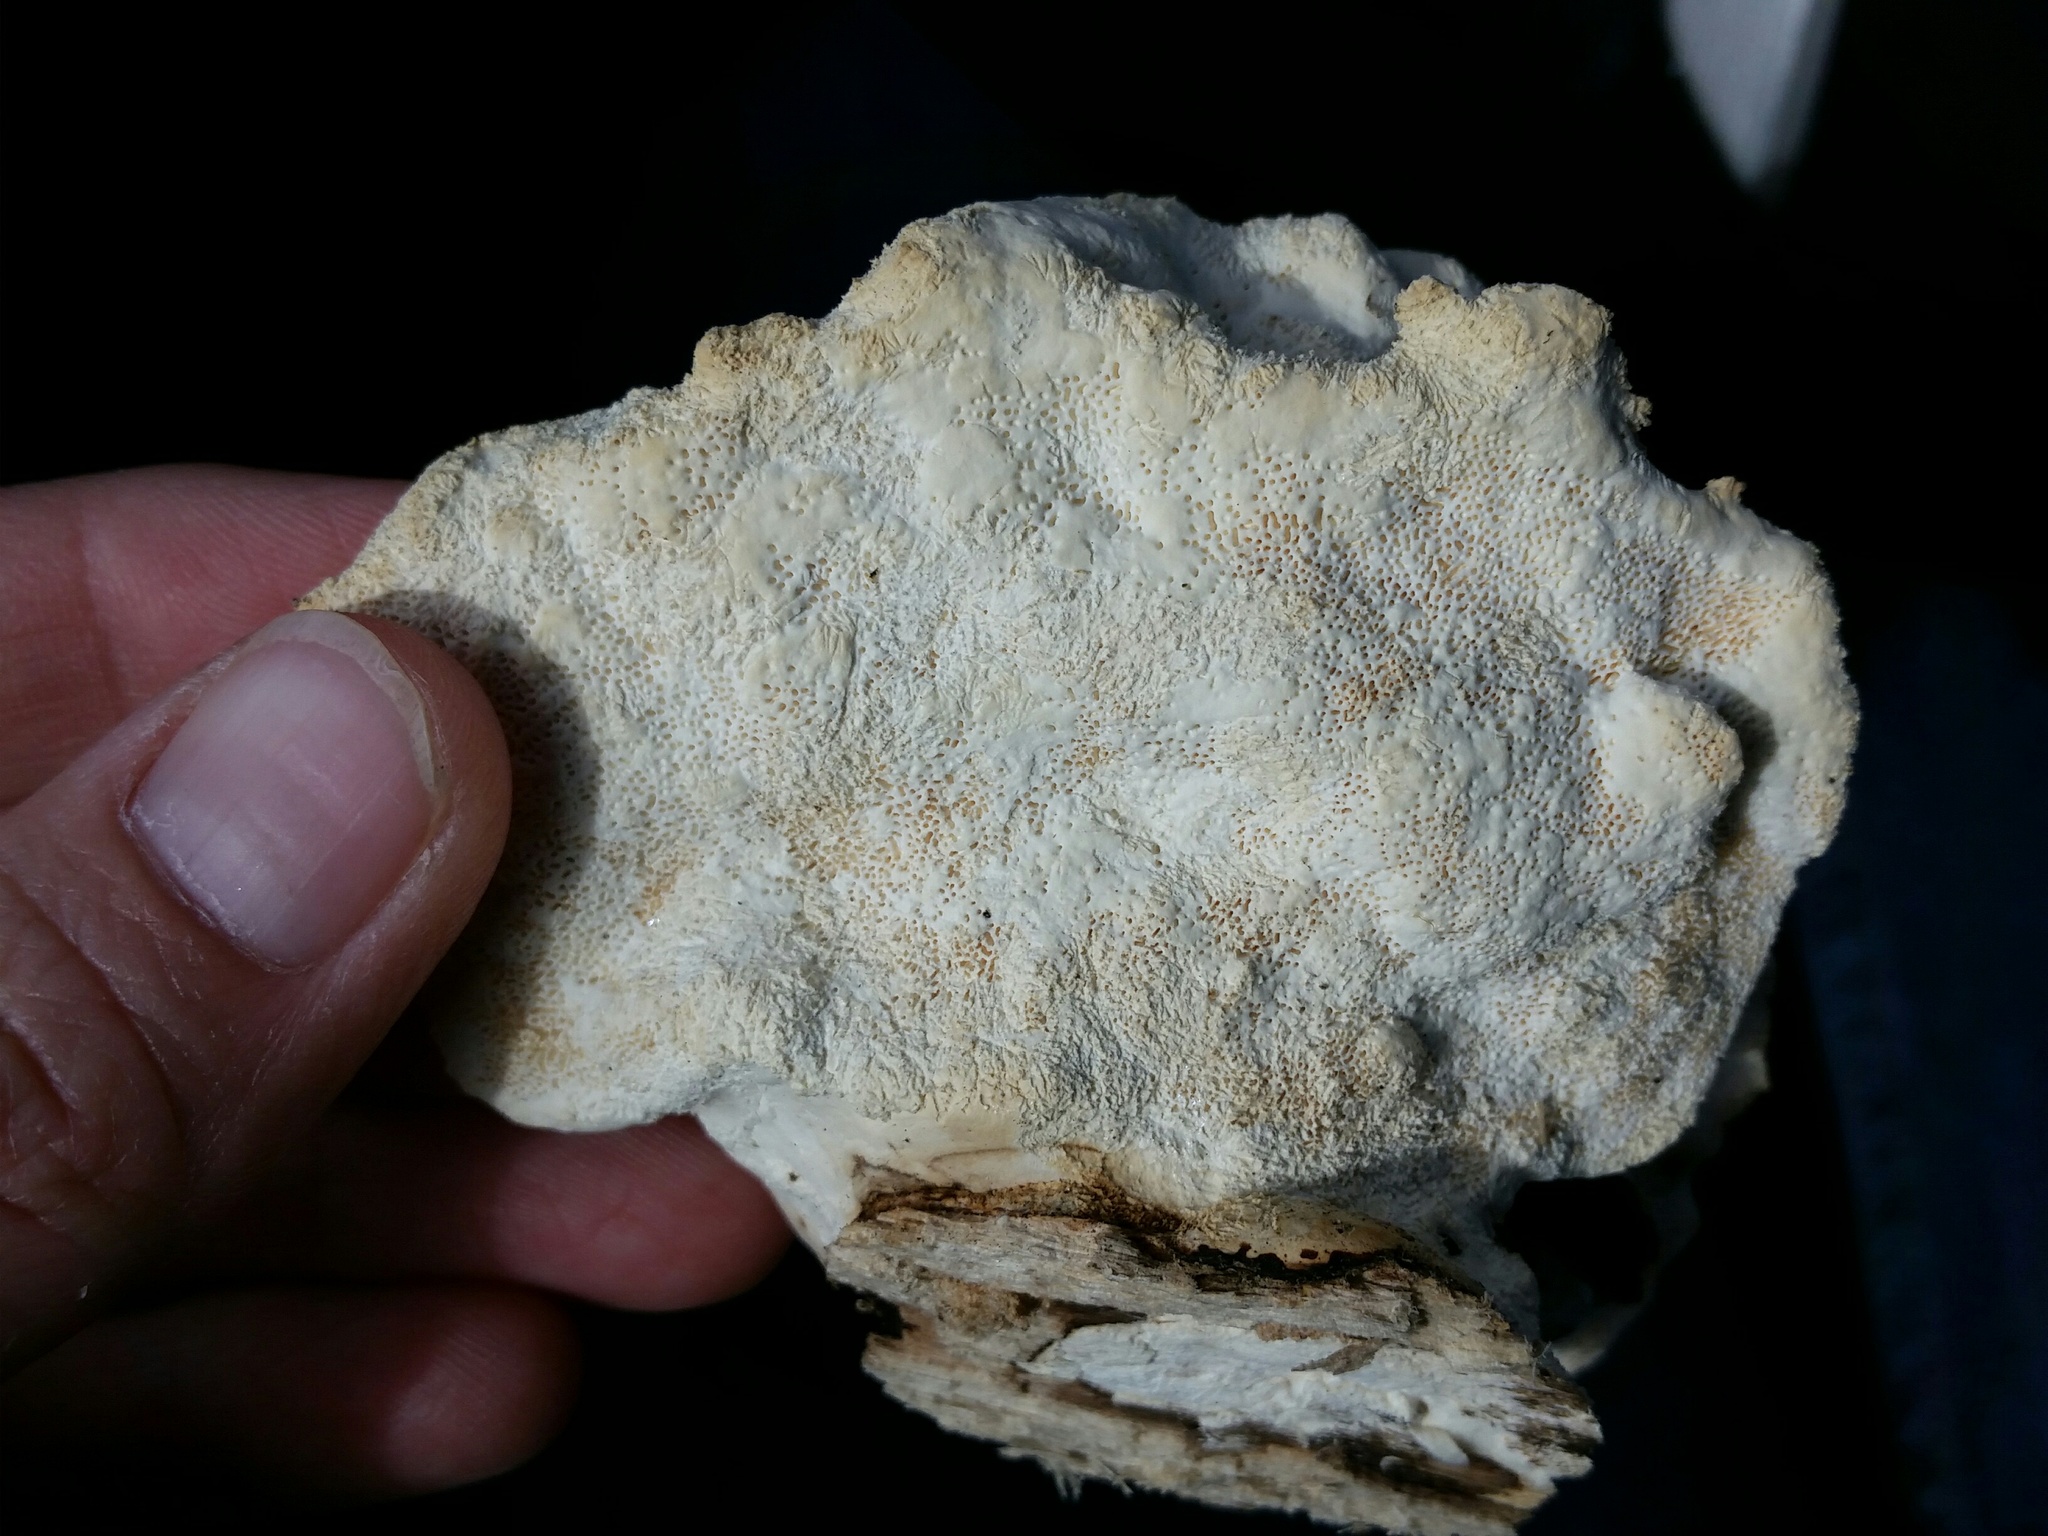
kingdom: Fungi
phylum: Basidiomycota
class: Agaricomycetes
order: Polyporales
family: Polyporaceae
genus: Trametes
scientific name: Trametes suaveolens
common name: Fragrant bracket
